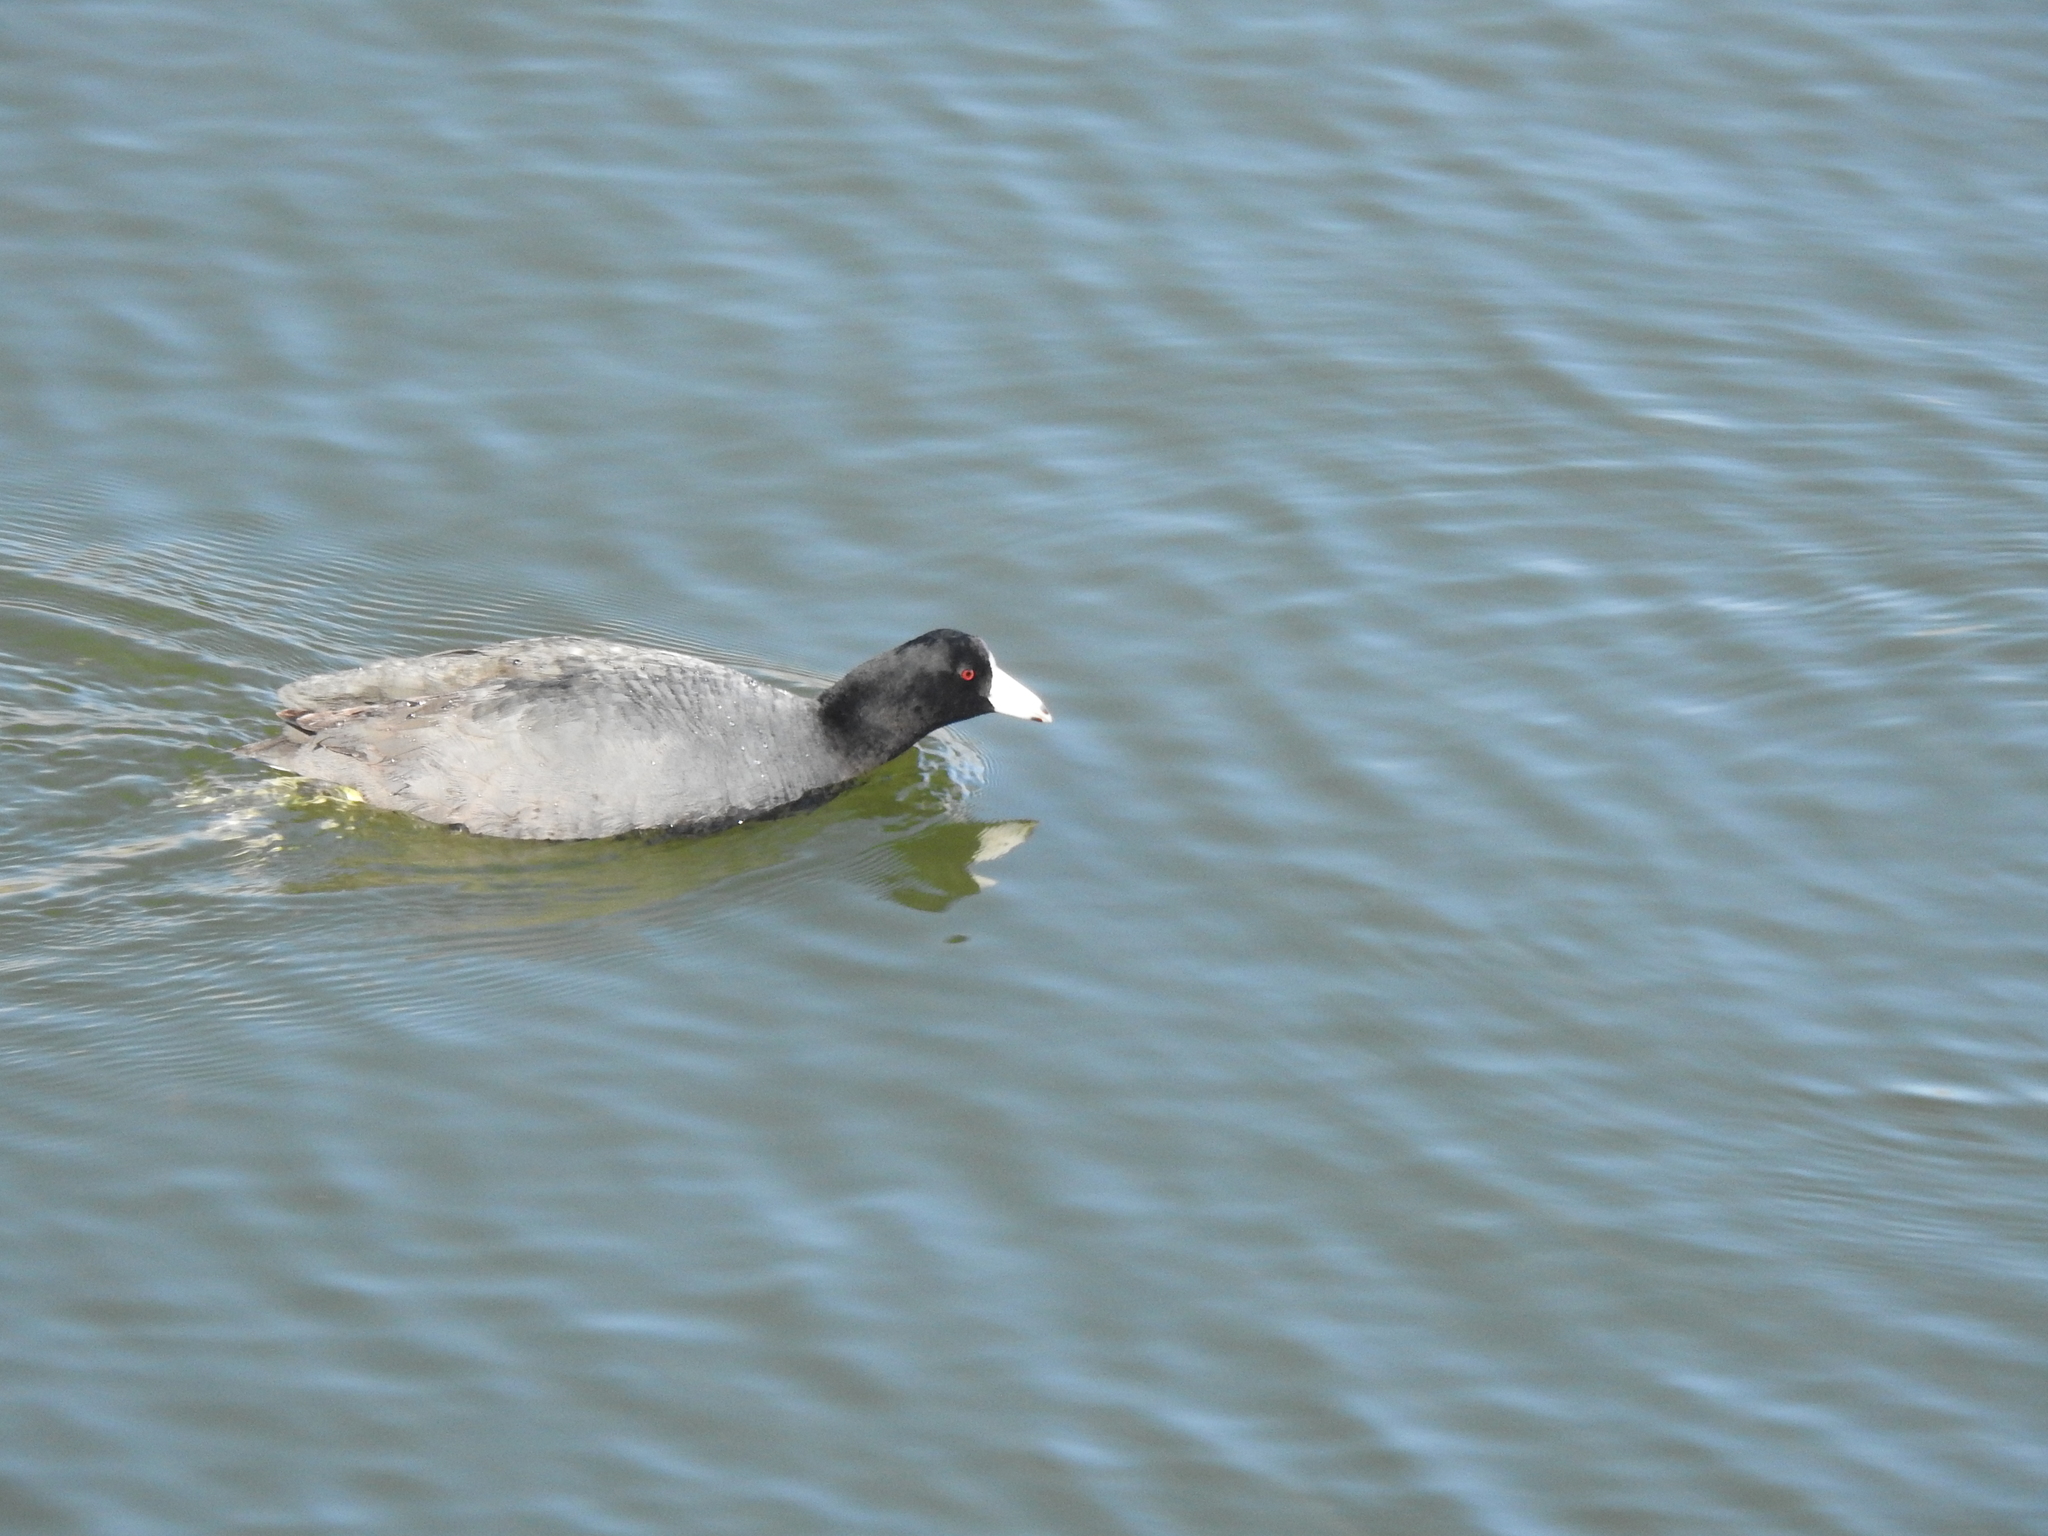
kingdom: Animalia
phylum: Chordata
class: Aves
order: Gruiformes
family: Rallidae
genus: Fulica
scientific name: Fulica americana
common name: American coot
